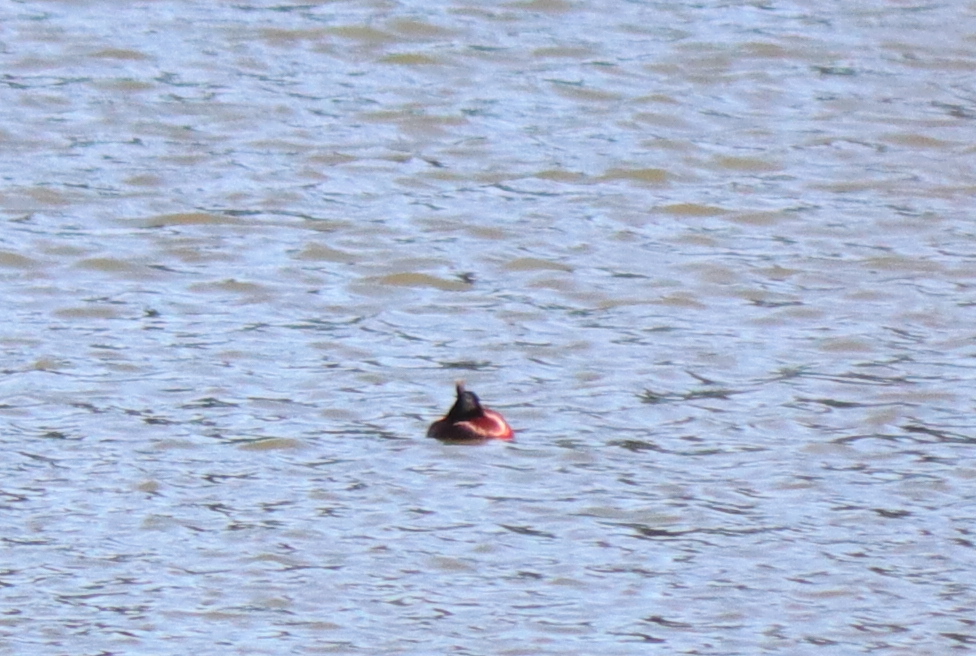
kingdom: Animalia
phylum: Chordata
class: Aves
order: Anseriformes
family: Anatidae
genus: Oxyura
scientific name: Oxyura vittata
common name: Lake duck
